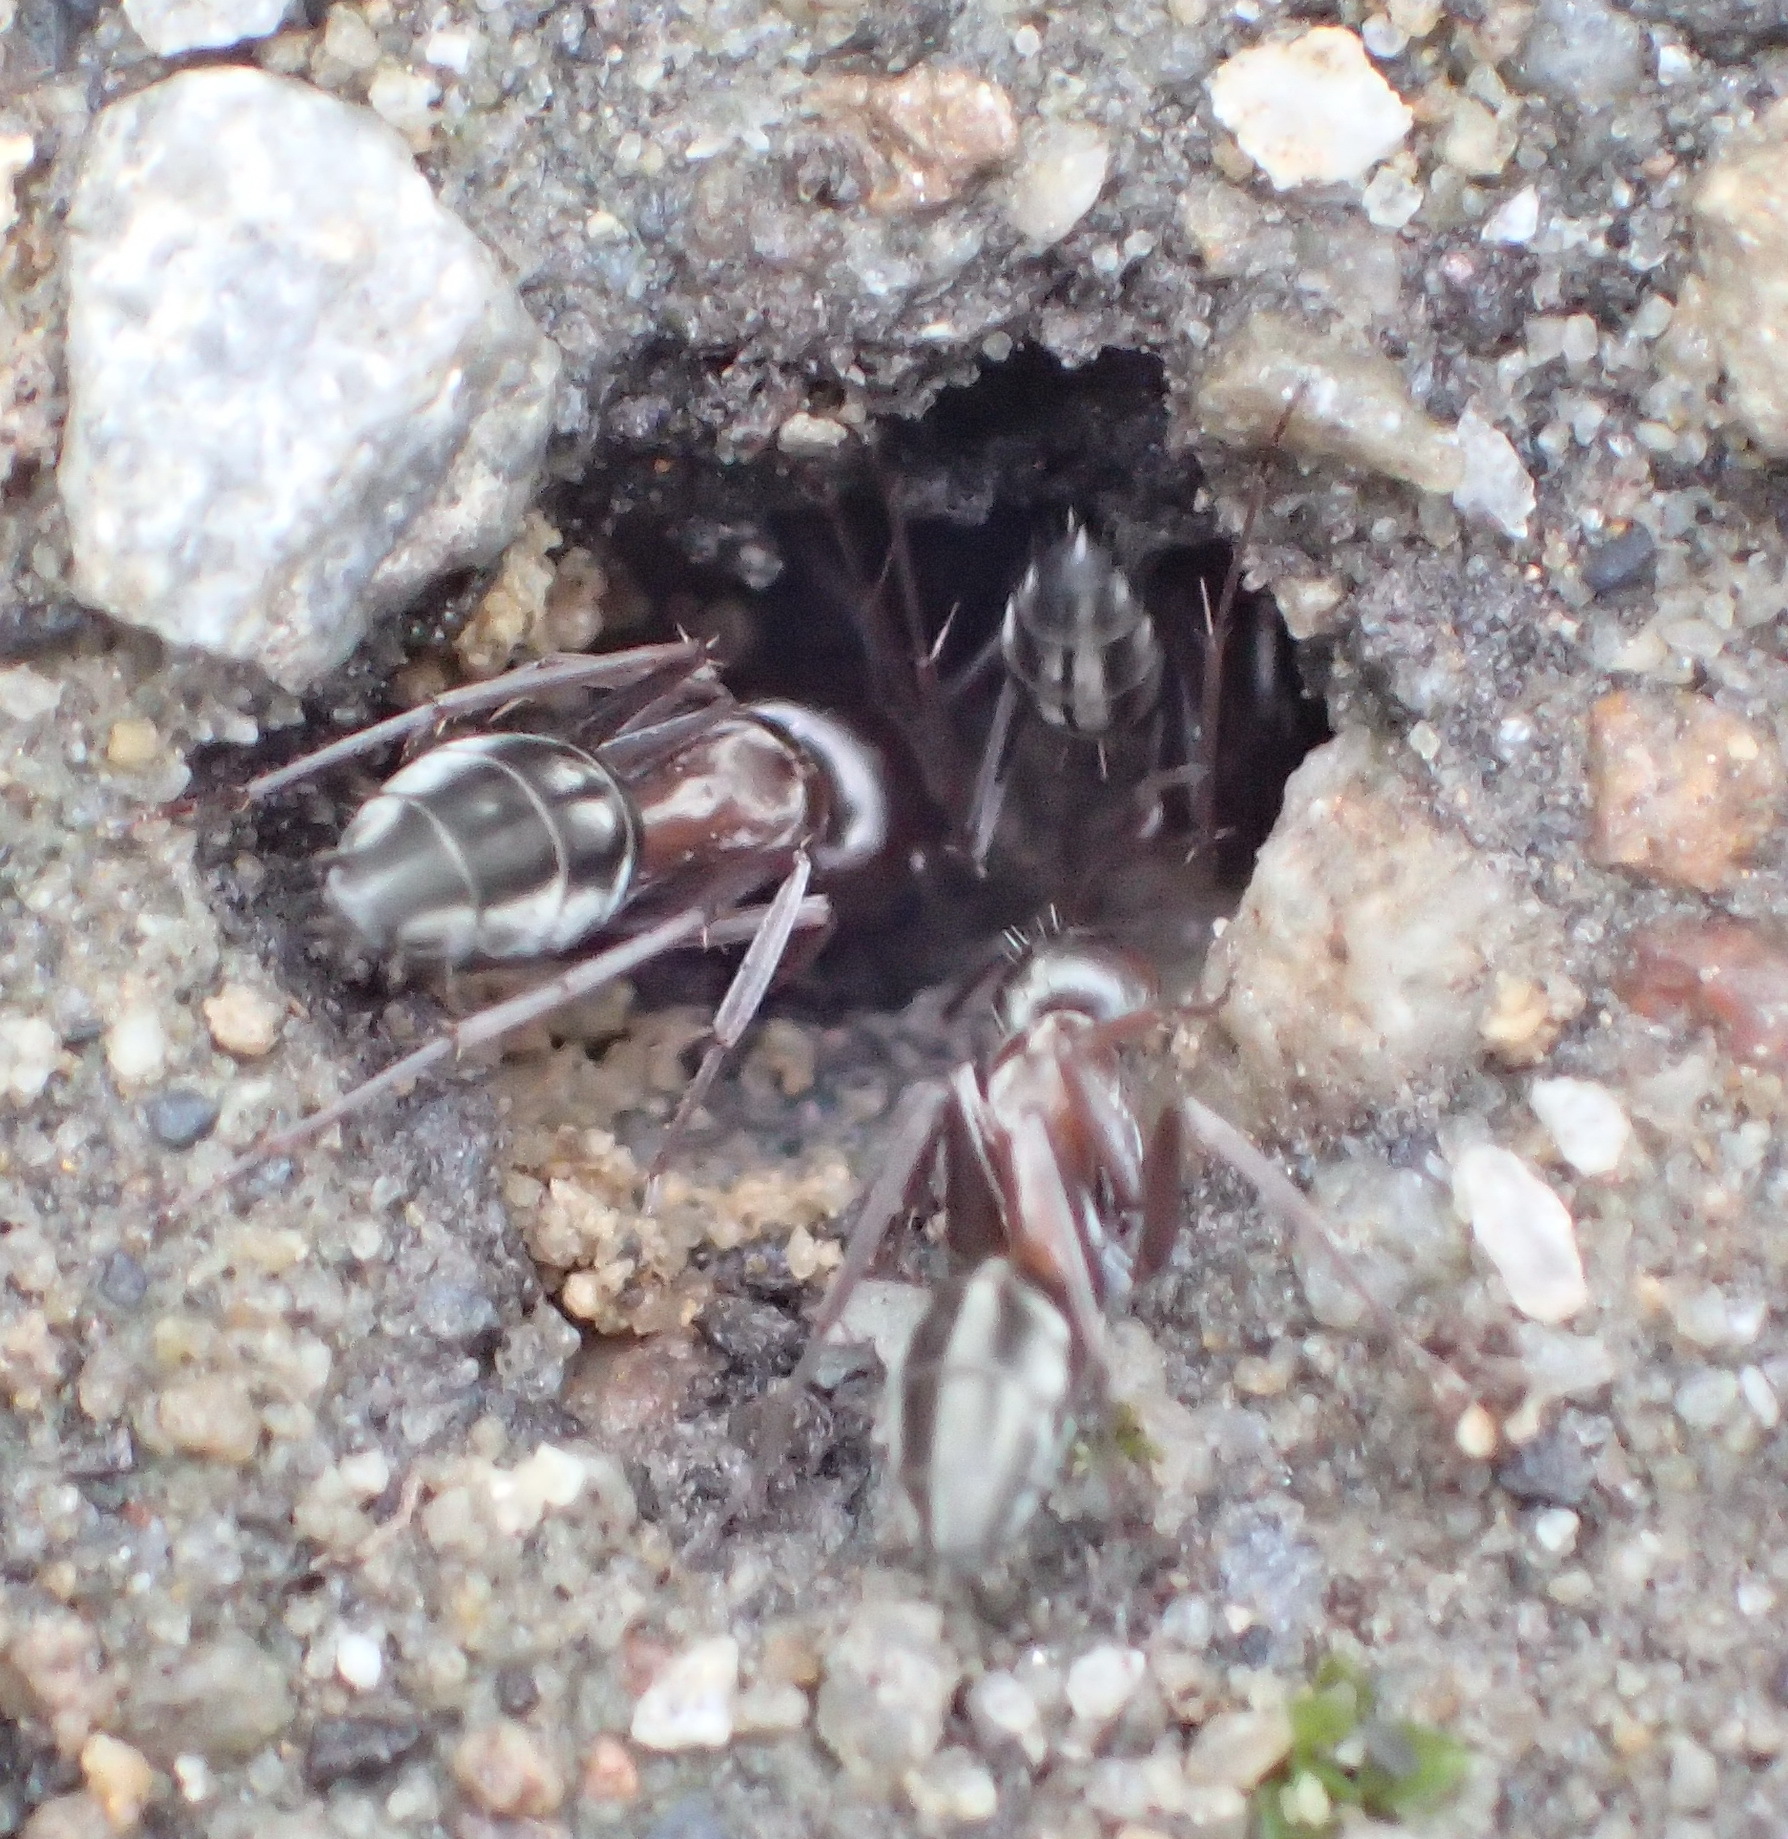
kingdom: Animalia
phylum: Arthropoda
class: Insecta
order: Hymenoptera
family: Formicidae
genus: Camponotus
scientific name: Camponotus vestitus
